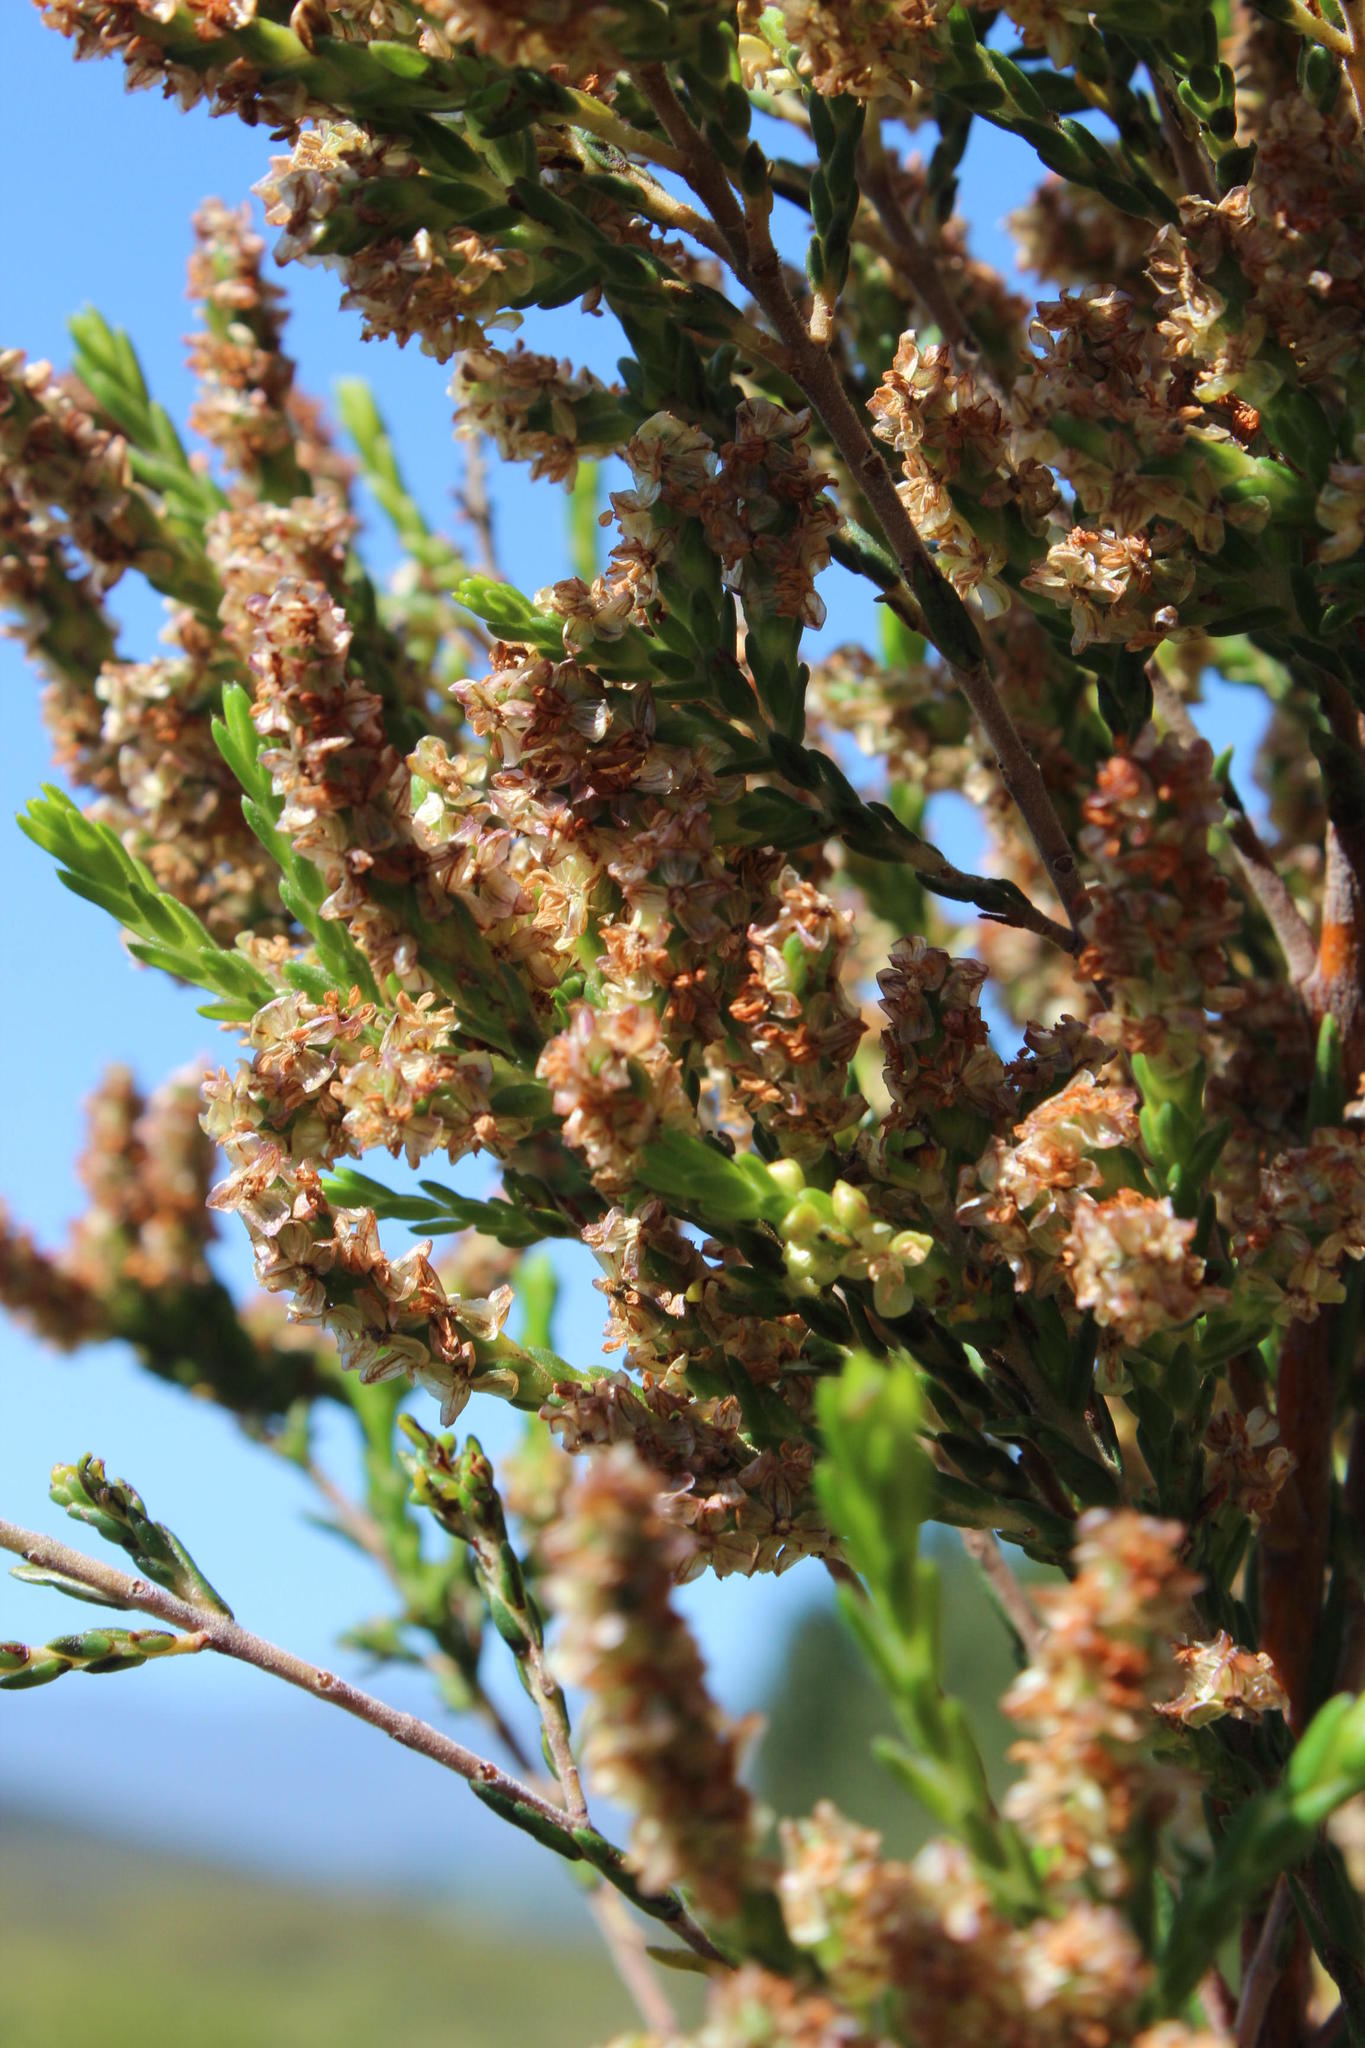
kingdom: Plantae
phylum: Tracheophyta
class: Magnoliopsida
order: Malvales
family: Thymelaeaceae
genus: Passerina
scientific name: Passerina corymbosa
